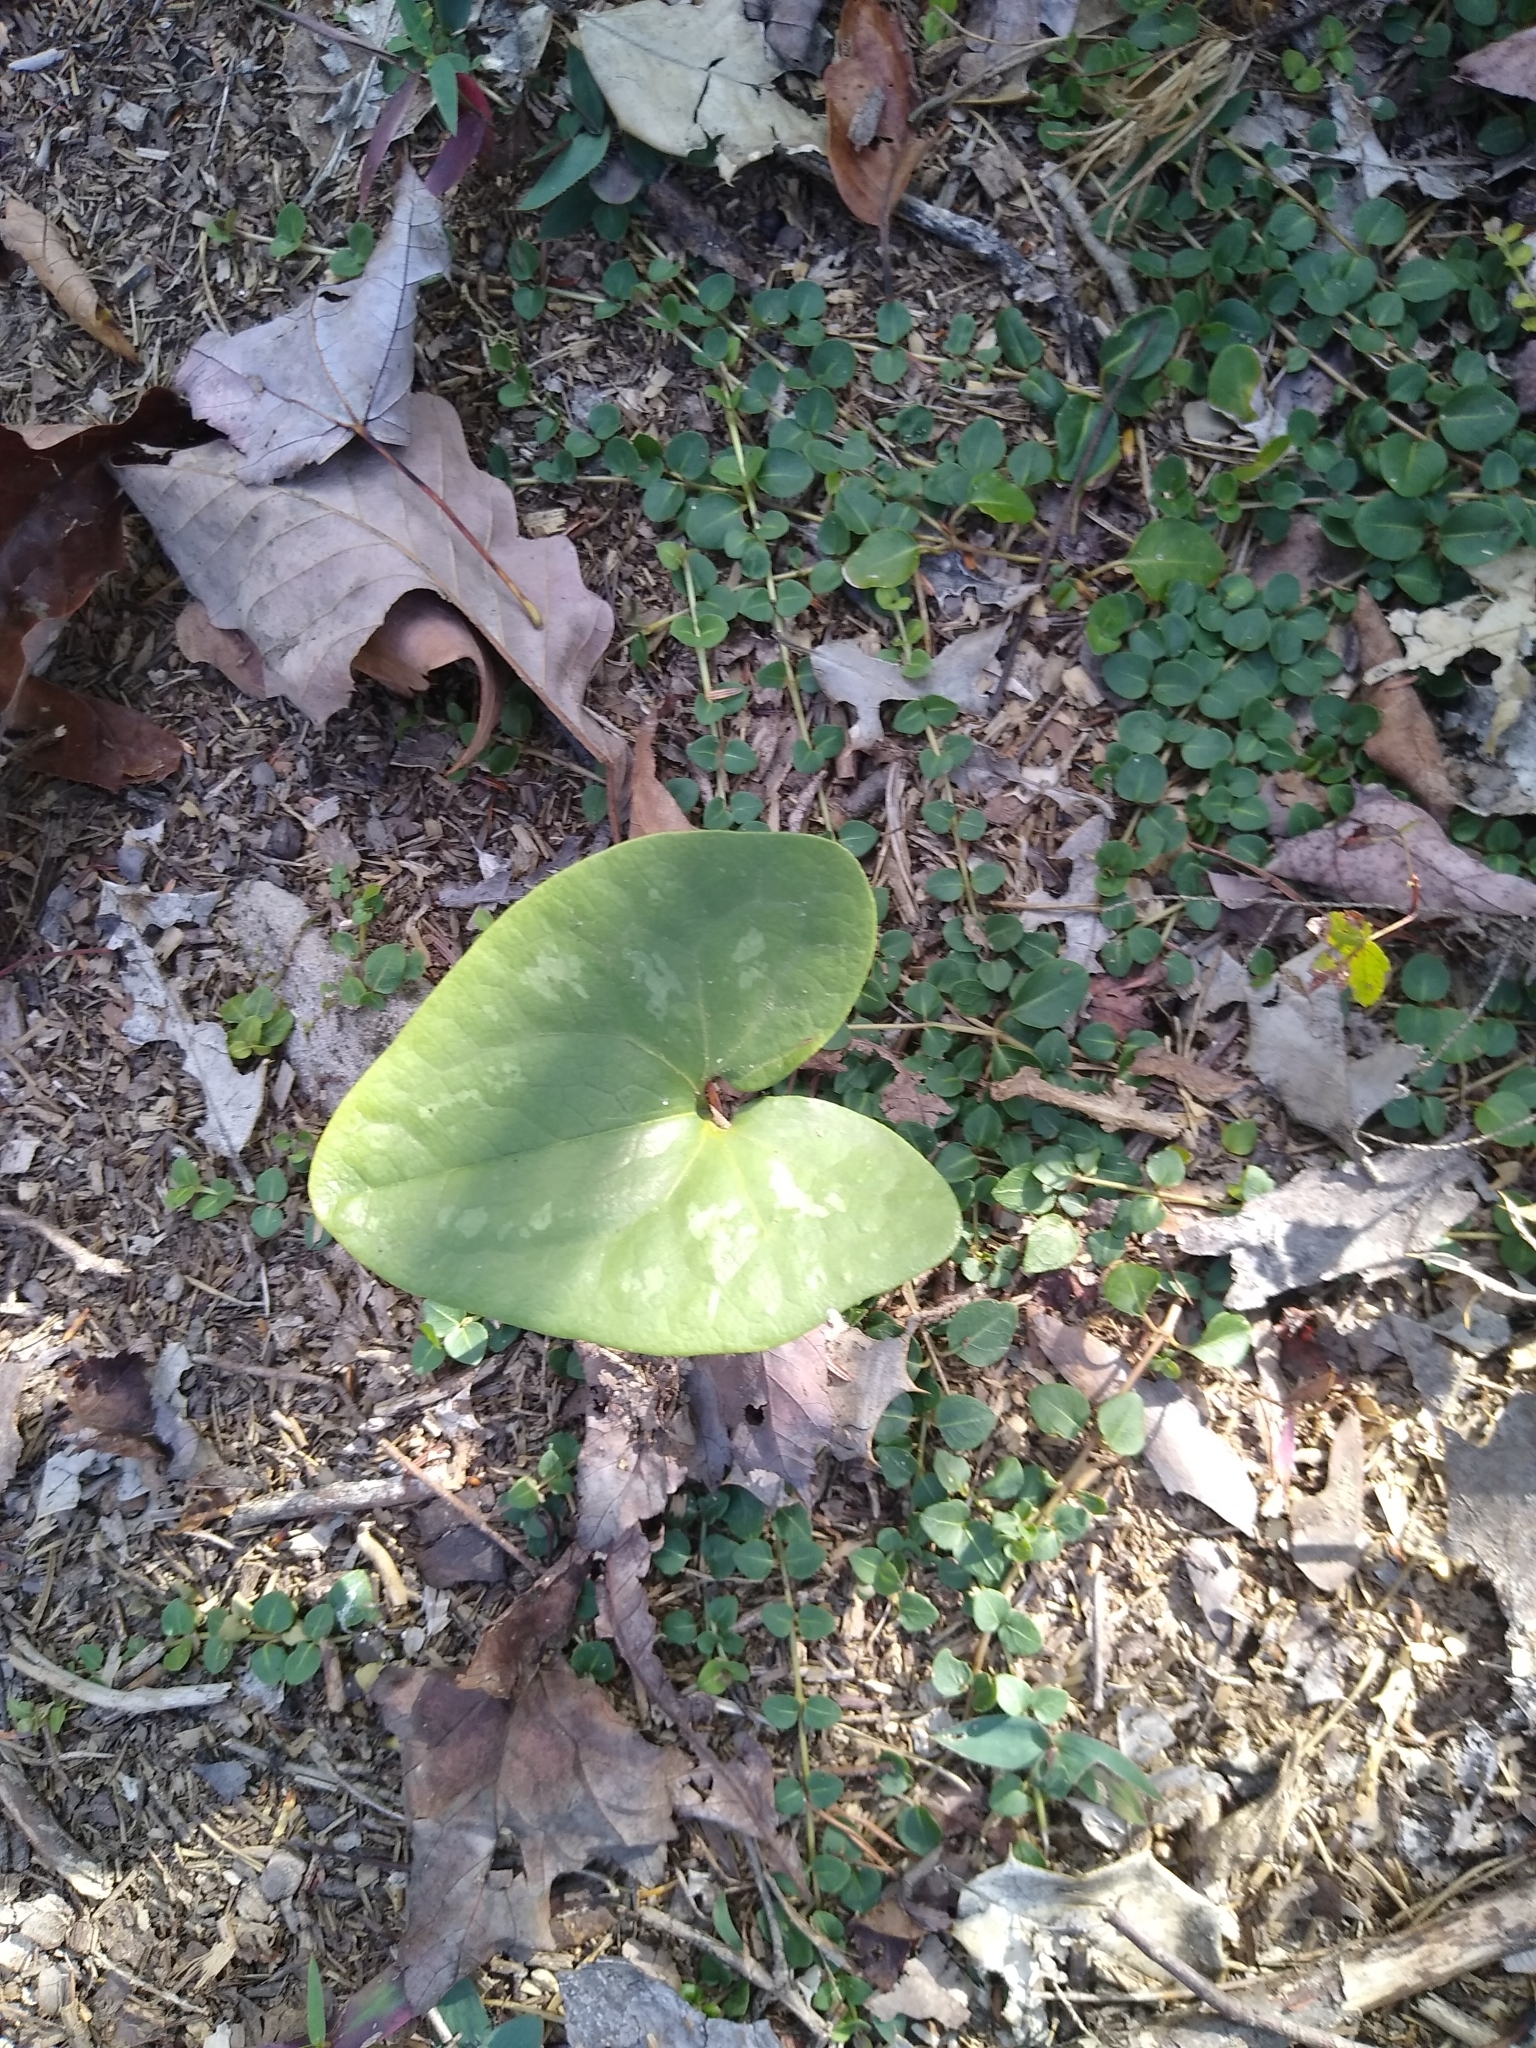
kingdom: Plantae
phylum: Tracheophyta
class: Magnoliopsida
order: Piperales
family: Aristolochiaceae
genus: Hexastylis
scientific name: Hexastylis arifolia
